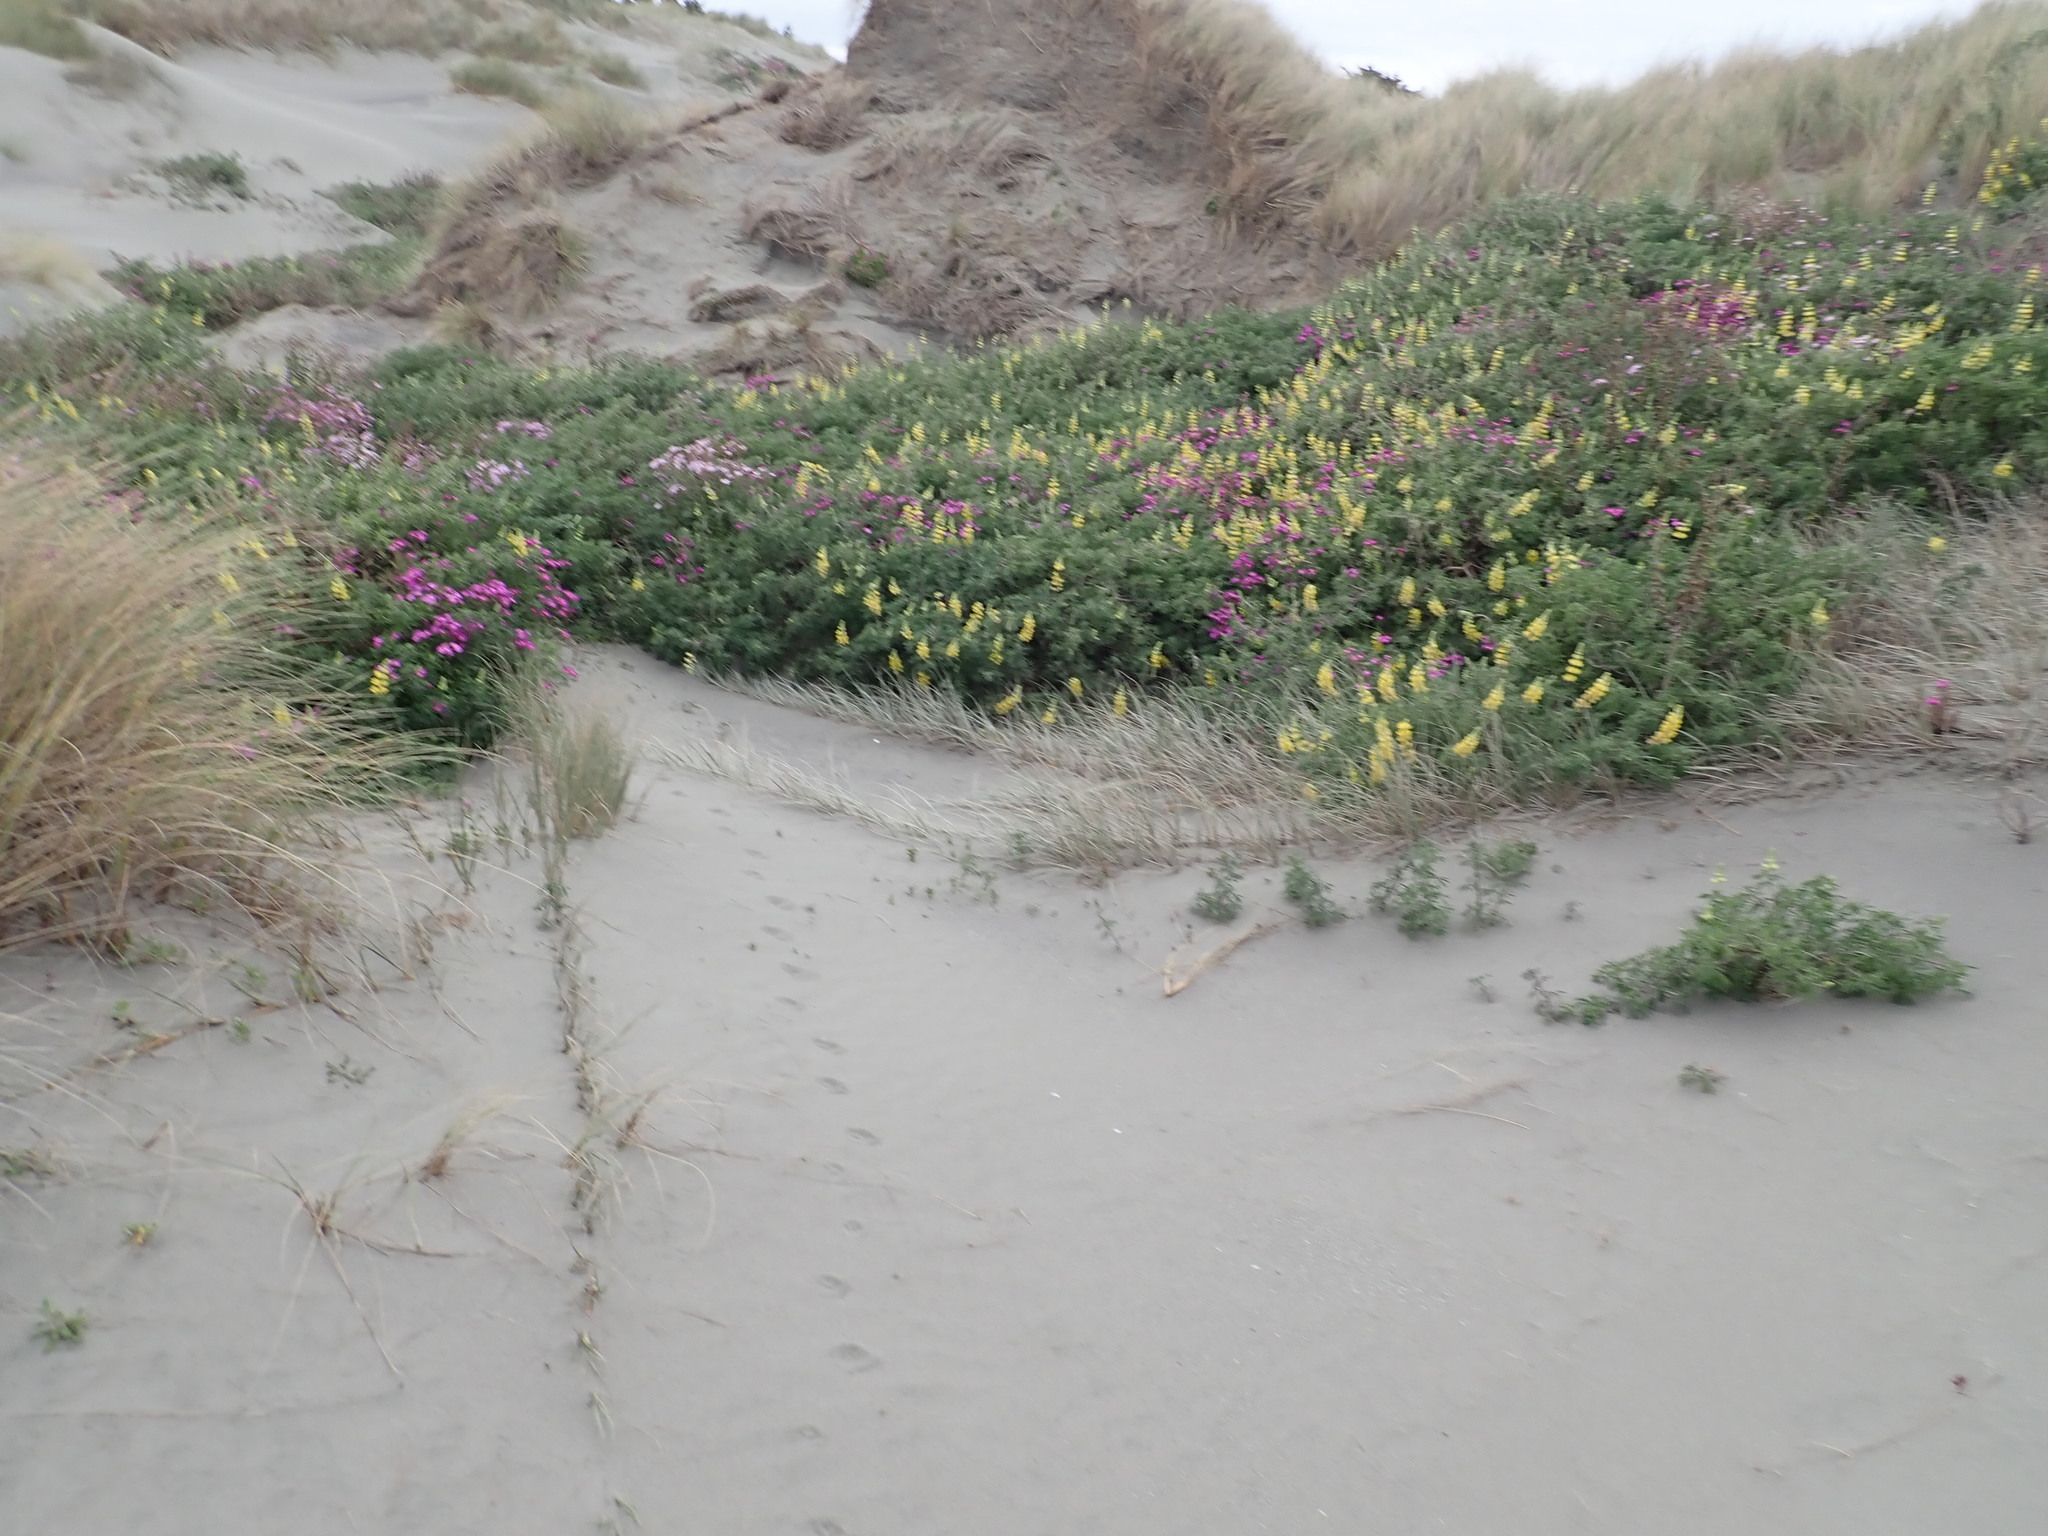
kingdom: Plantae
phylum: Tracheophyta
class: Magnoliopsida
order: Fabales
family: Fabaceae
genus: Lupinus
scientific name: Lupinus arboreus
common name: Yellow bush lupine
